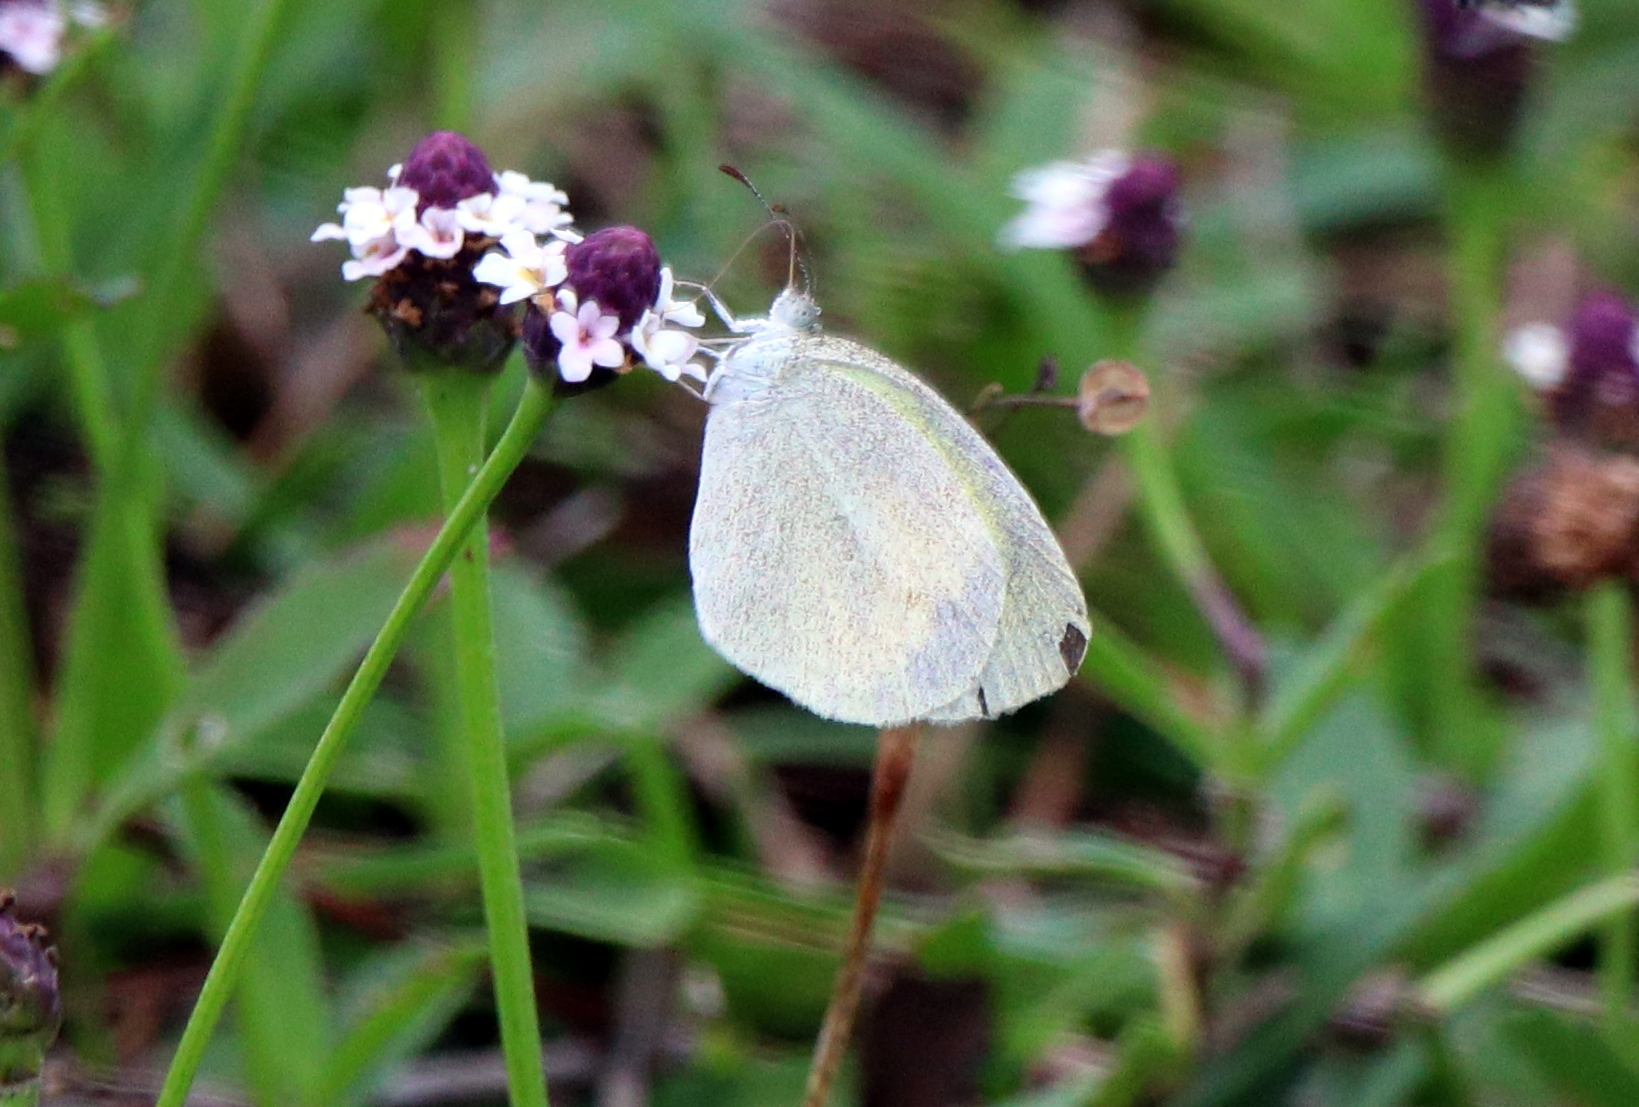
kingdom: Animalia
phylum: Arthropoda
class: Insecta
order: Lepidoptera
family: Pieridae
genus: Eurema
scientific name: Eurema daira
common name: Barred sulphur
